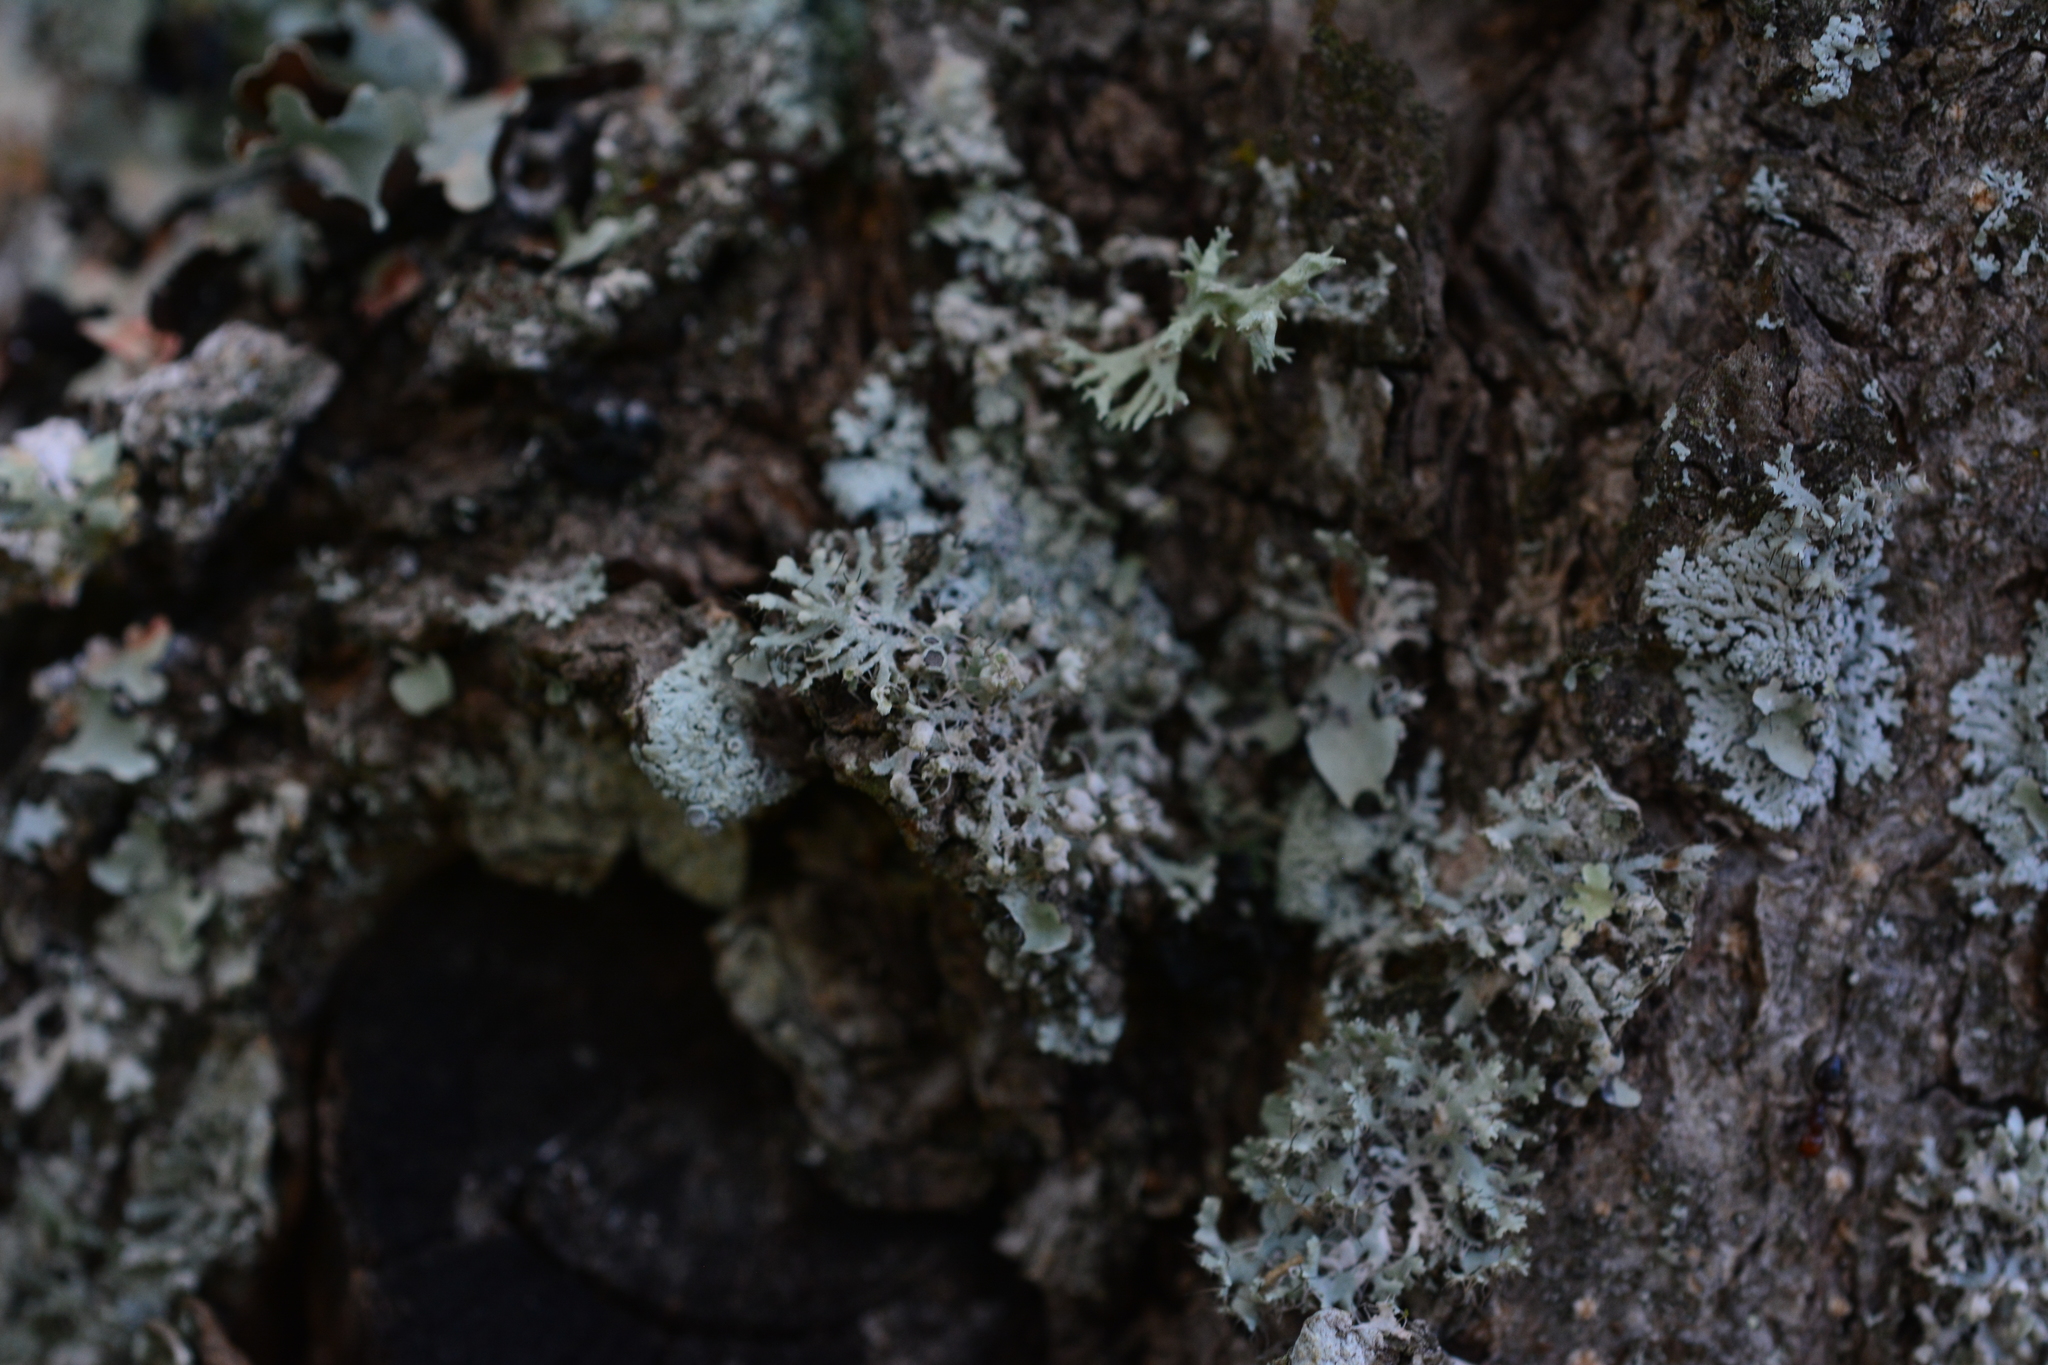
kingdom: Fungi
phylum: Ascomycota
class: Lecanoromycetes
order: Caliciales
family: Physciaceae
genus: Physcia
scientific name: Physcia tenella
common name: Fringed rosette lichen
